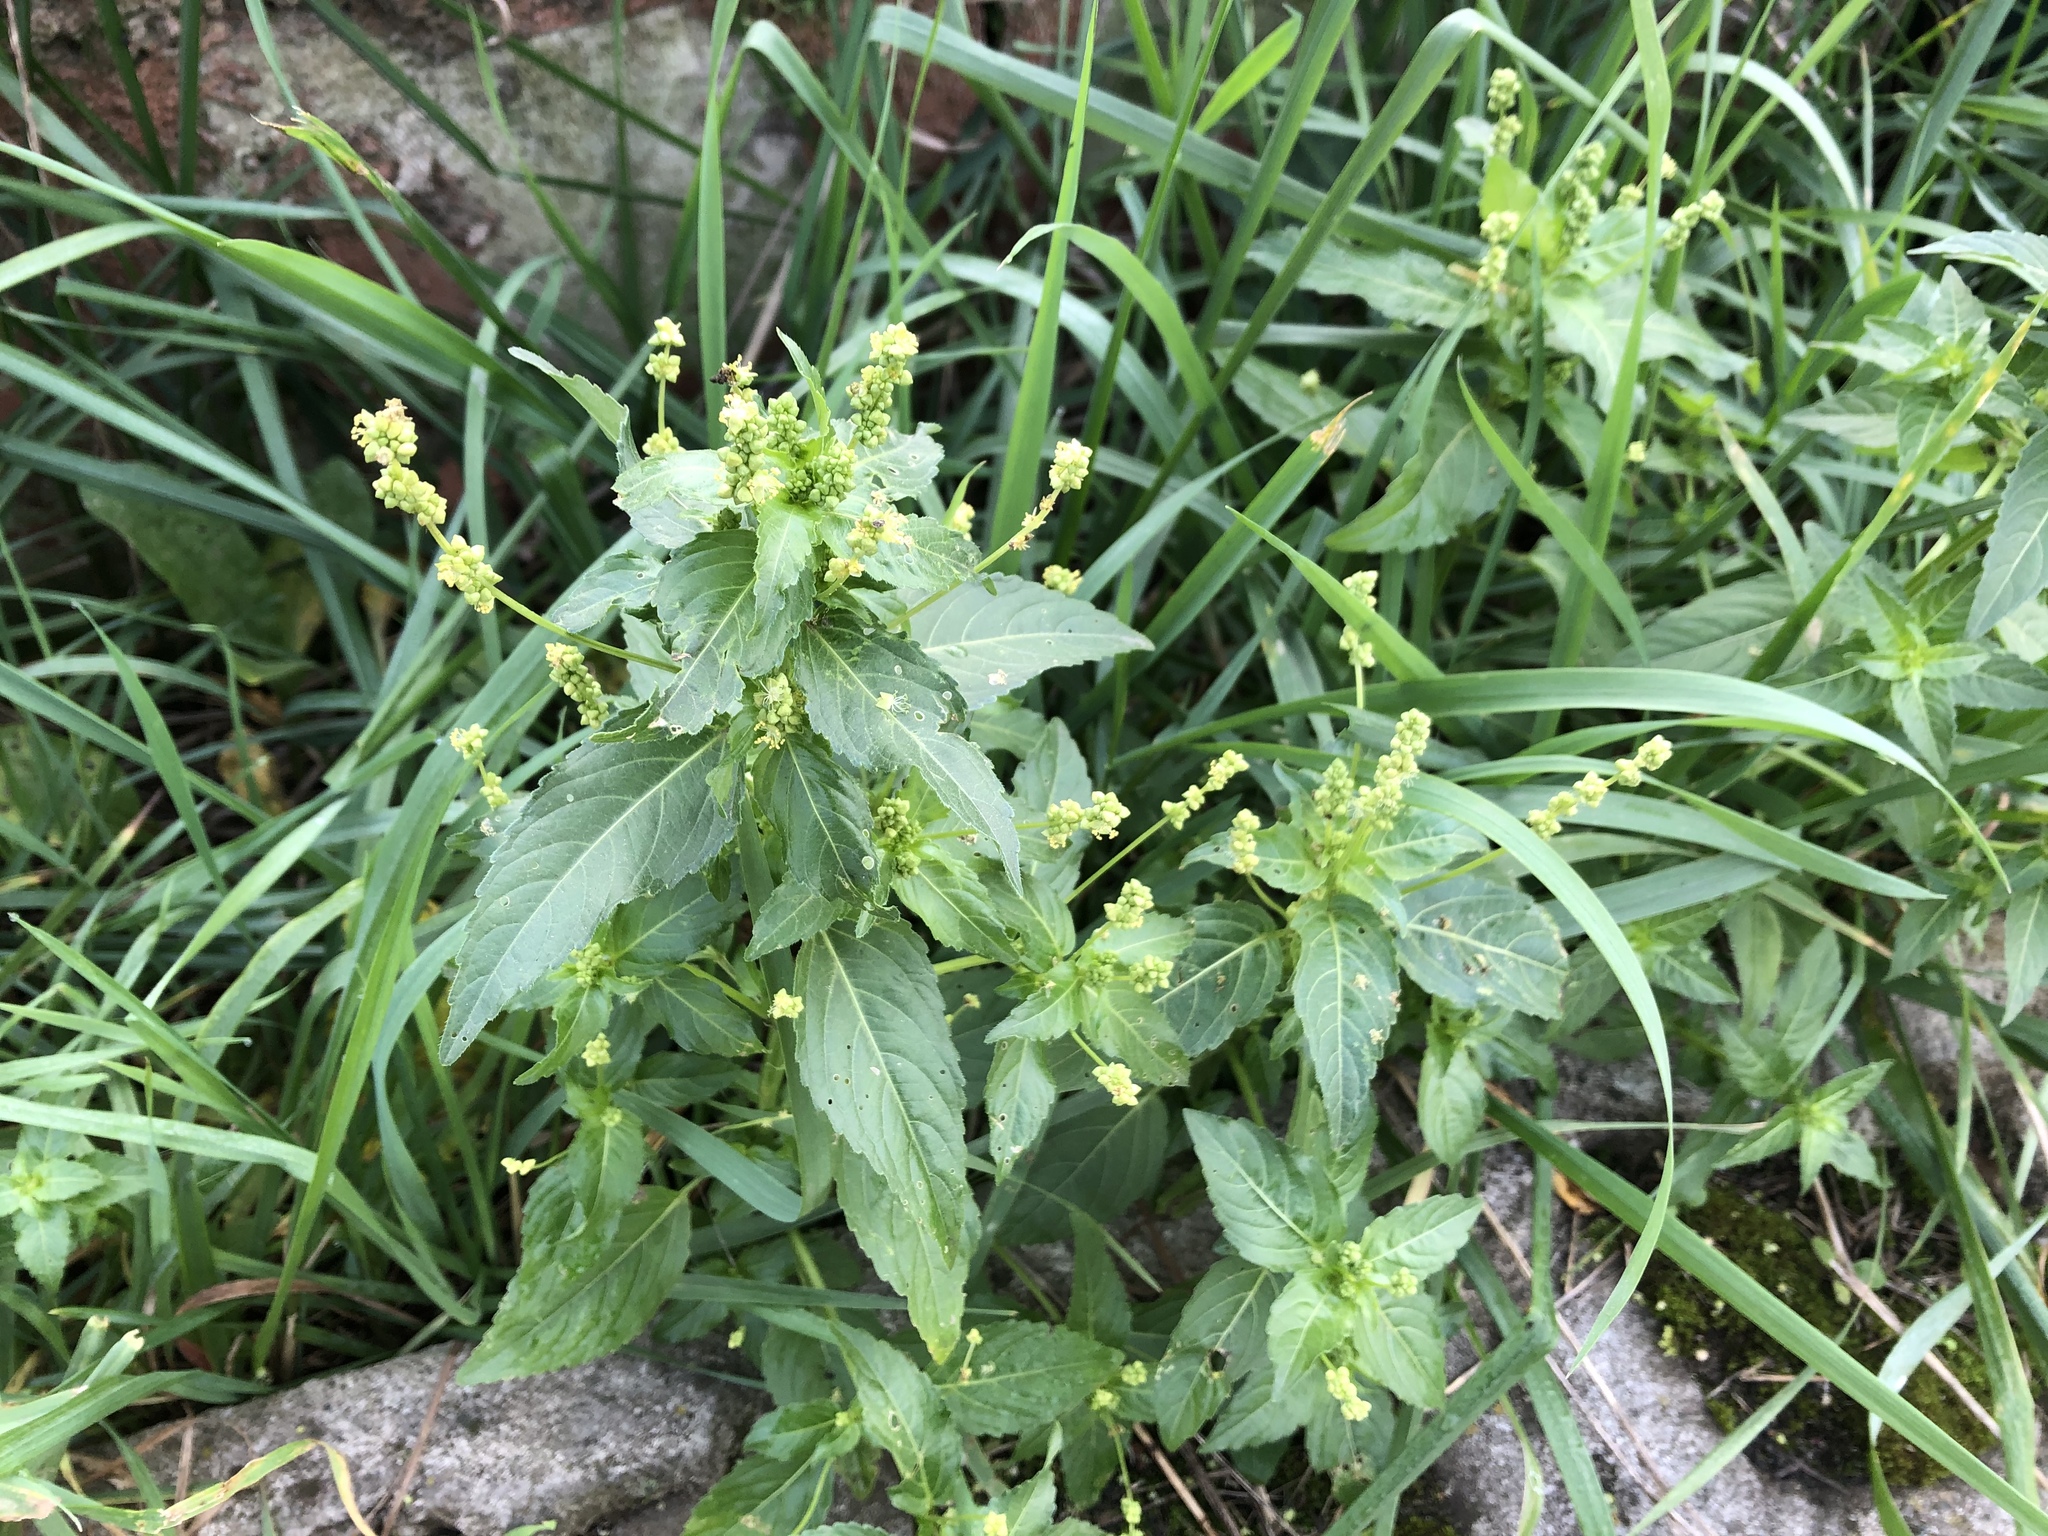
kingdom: Plantae
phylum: Tracheophyta
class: Magnoliopsida
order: Malpighiales
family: Euphorbiaceae
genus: Mercurialis
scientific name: Mercurialis annua
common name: Annual mercury
